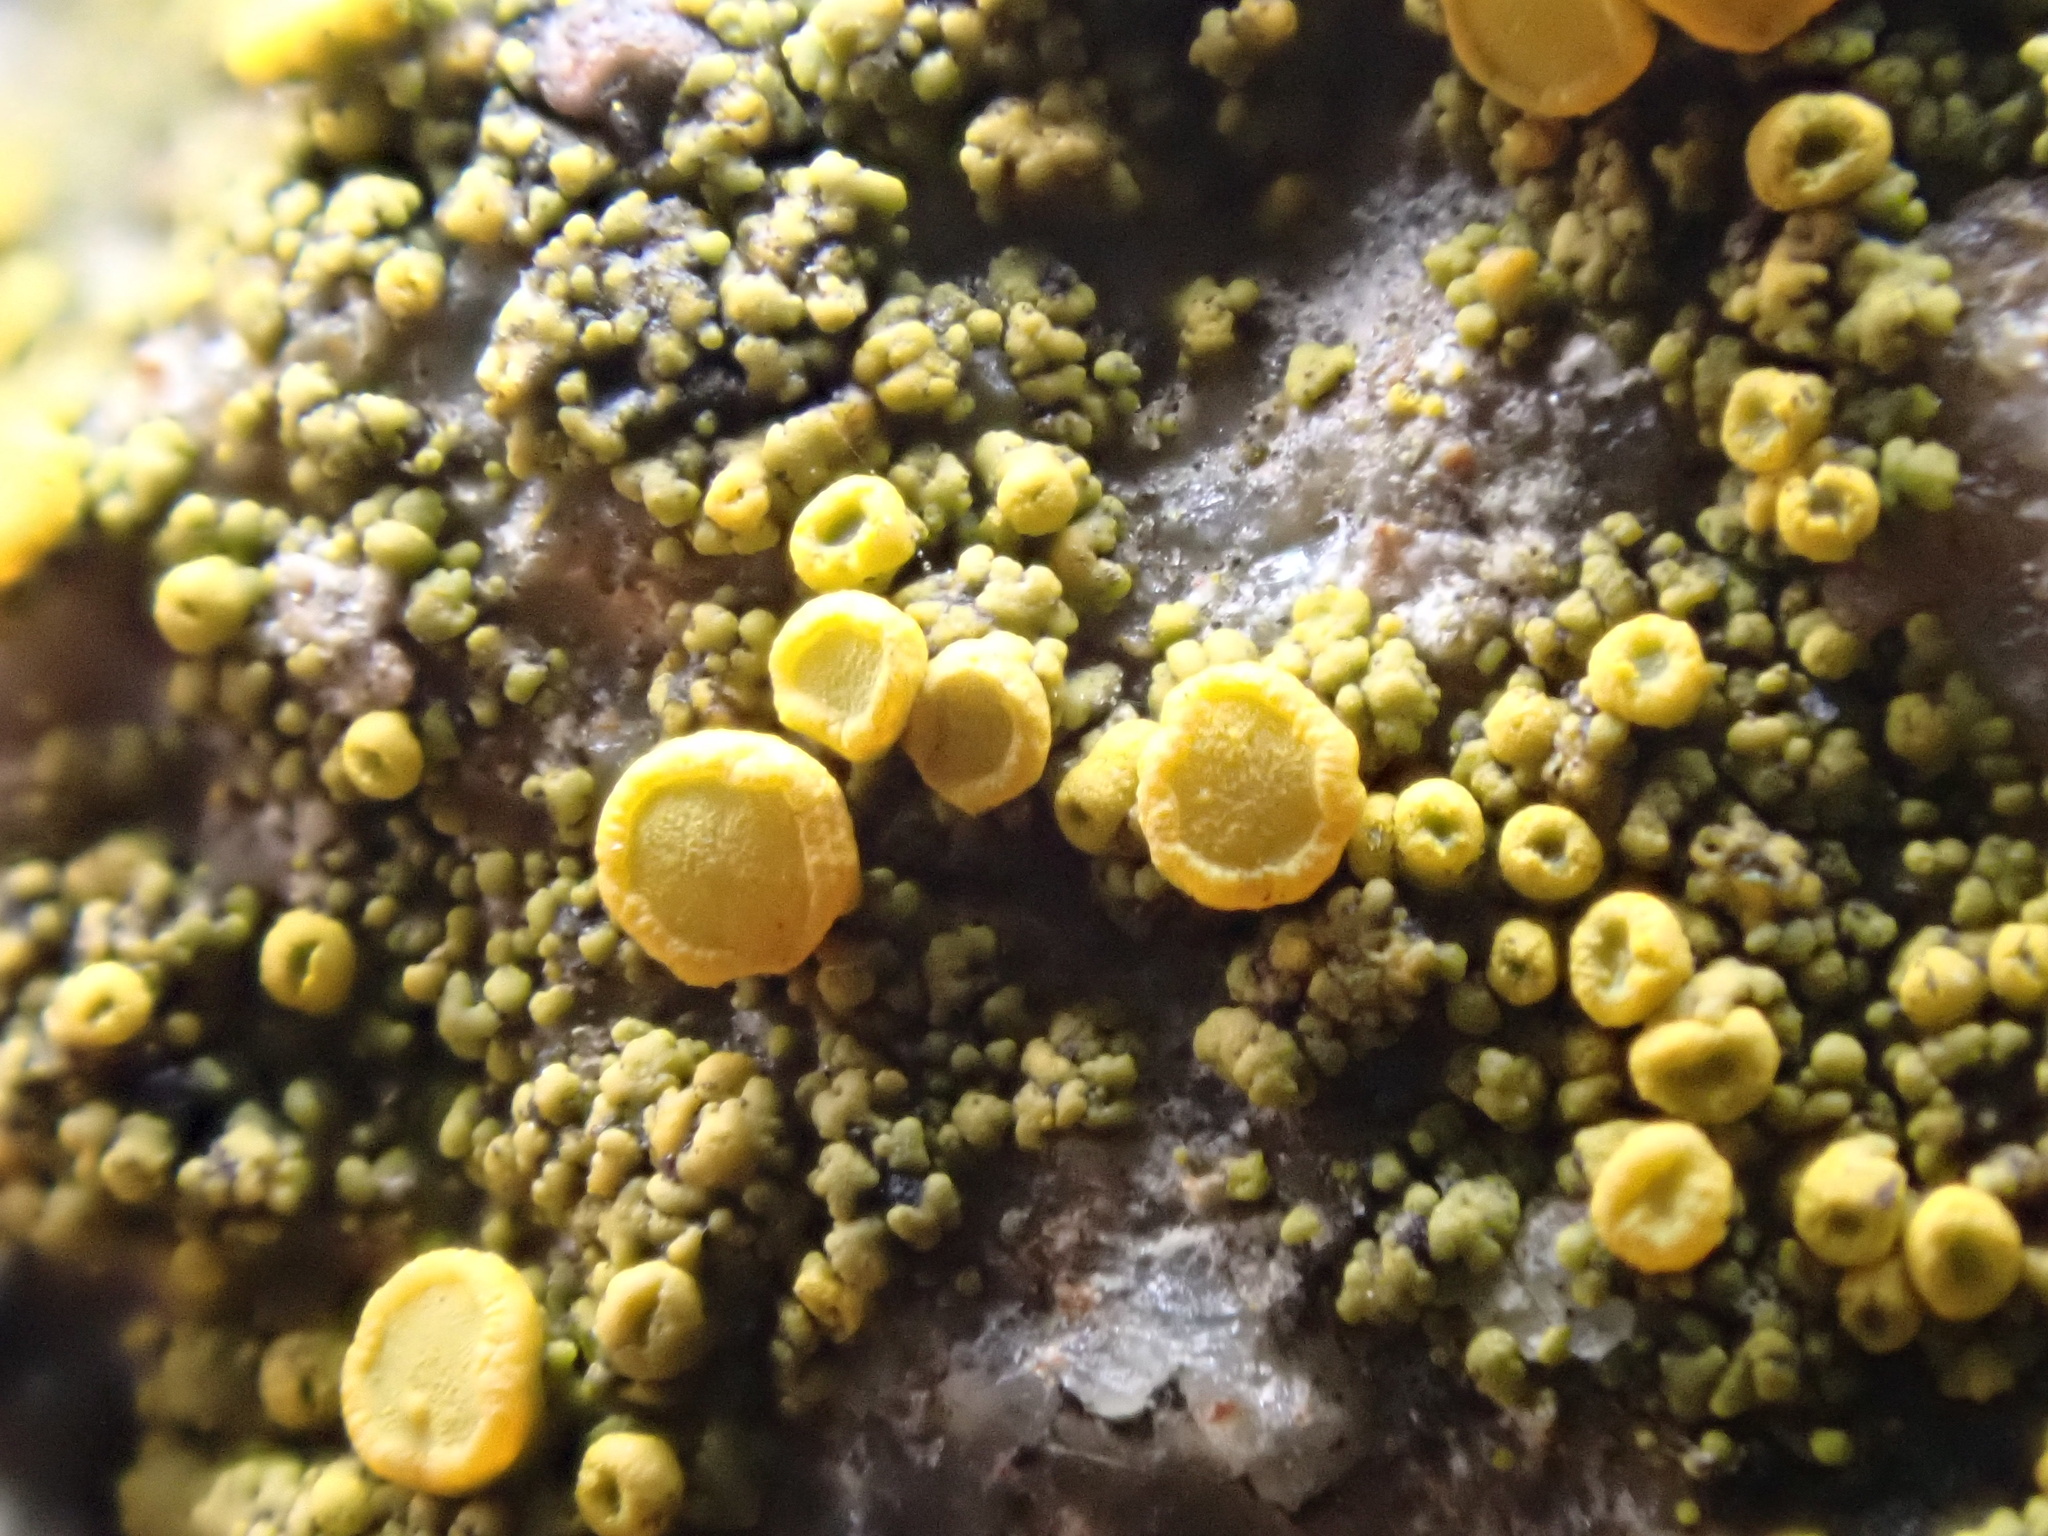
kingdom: Fungi
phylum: Ascomycota
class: Candelariomycetes
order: Candelariales
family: Candelariaceae
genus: Candelariella
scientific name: Candelariella vitellina
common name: Common goldspeck
